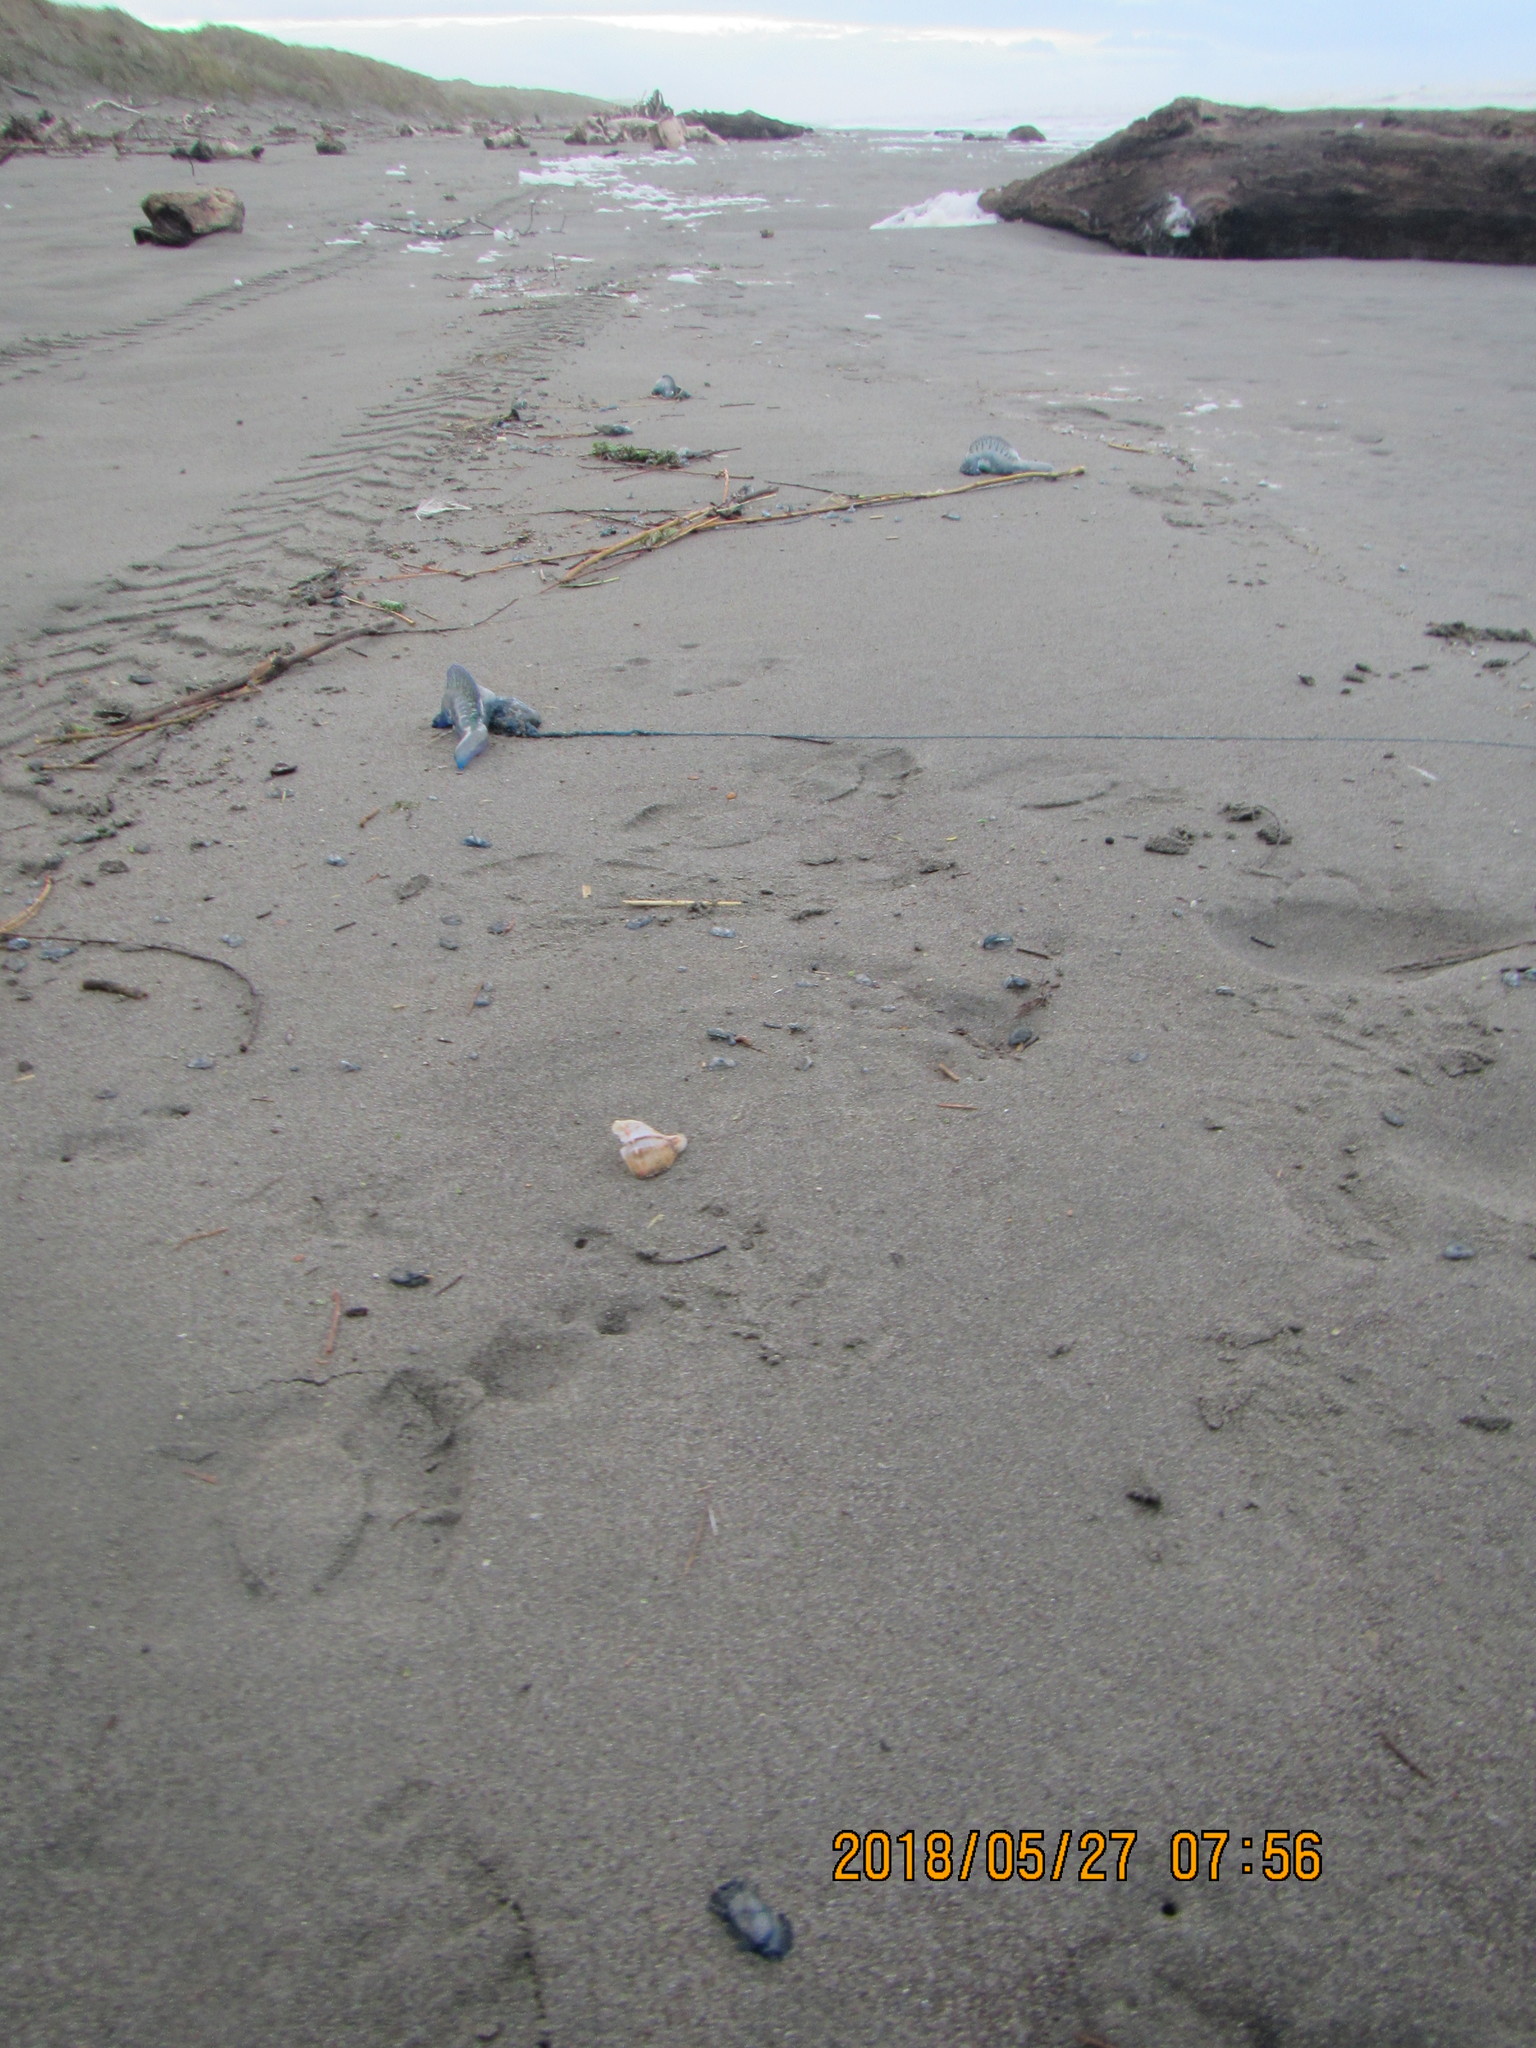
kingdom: Animalia
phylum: Mollusca
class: Gastropoda
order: Neogastropoda
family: Prosiphonidae
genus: Austrofusus
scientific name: Austrofusus glans
